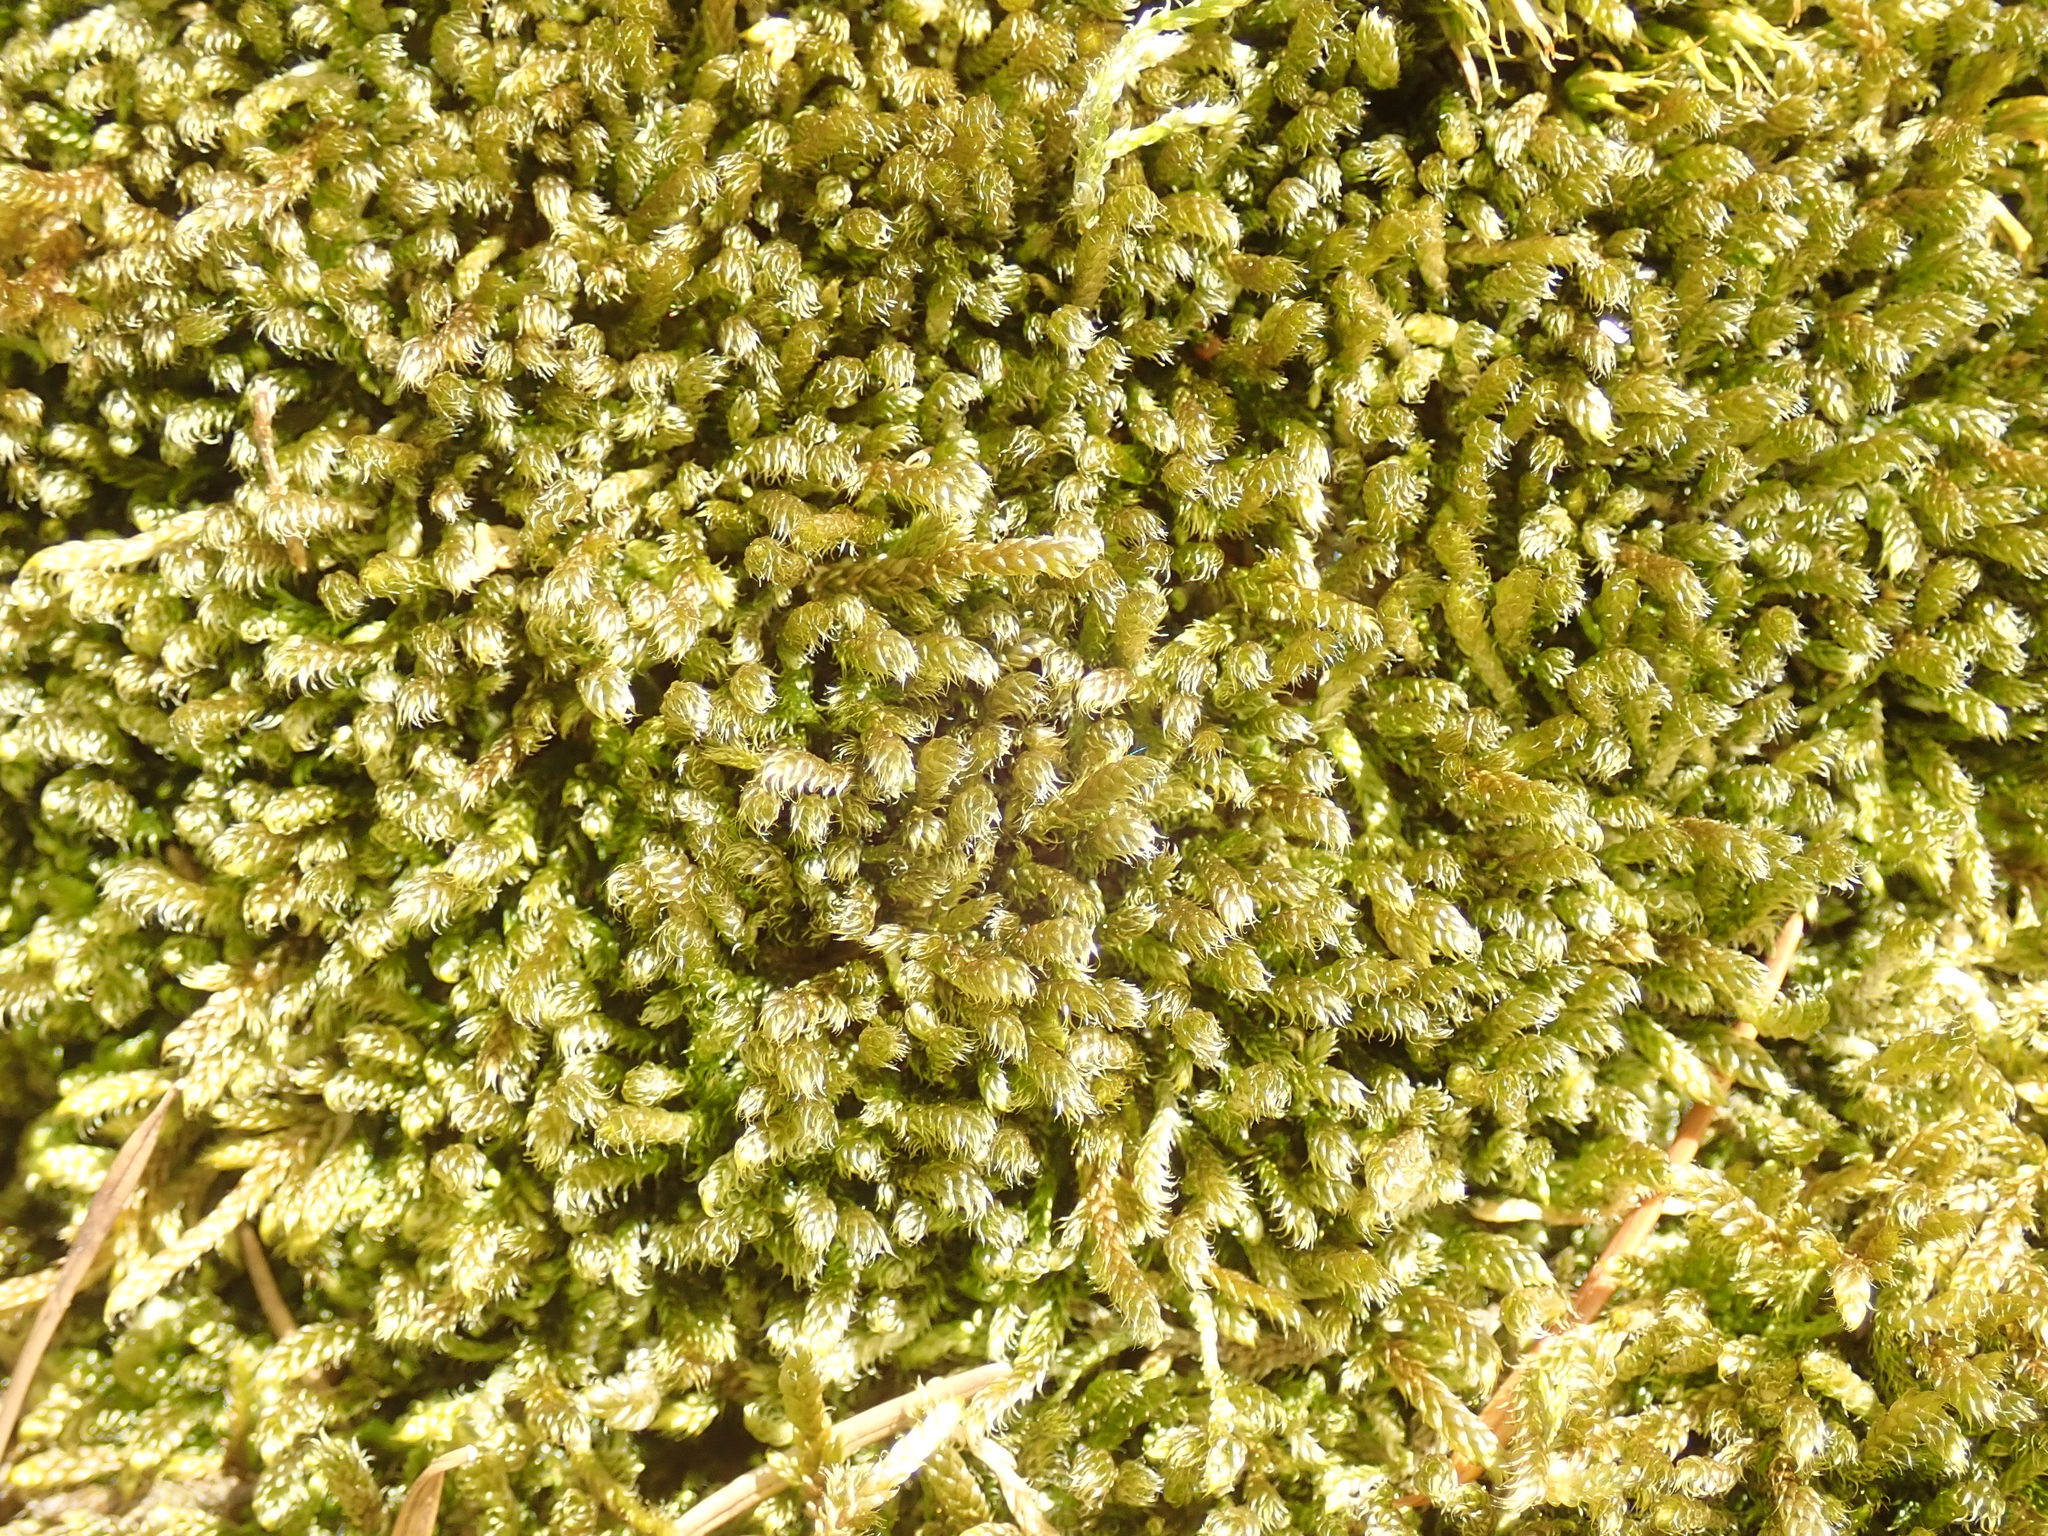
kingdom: Plantae
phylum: Bryophyta
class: Bryopsida
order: Hypnales
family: Hypnaceae
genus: Hypnum
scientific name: Hypnum cupressiforme
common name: Cypress-leaved plait-moss
